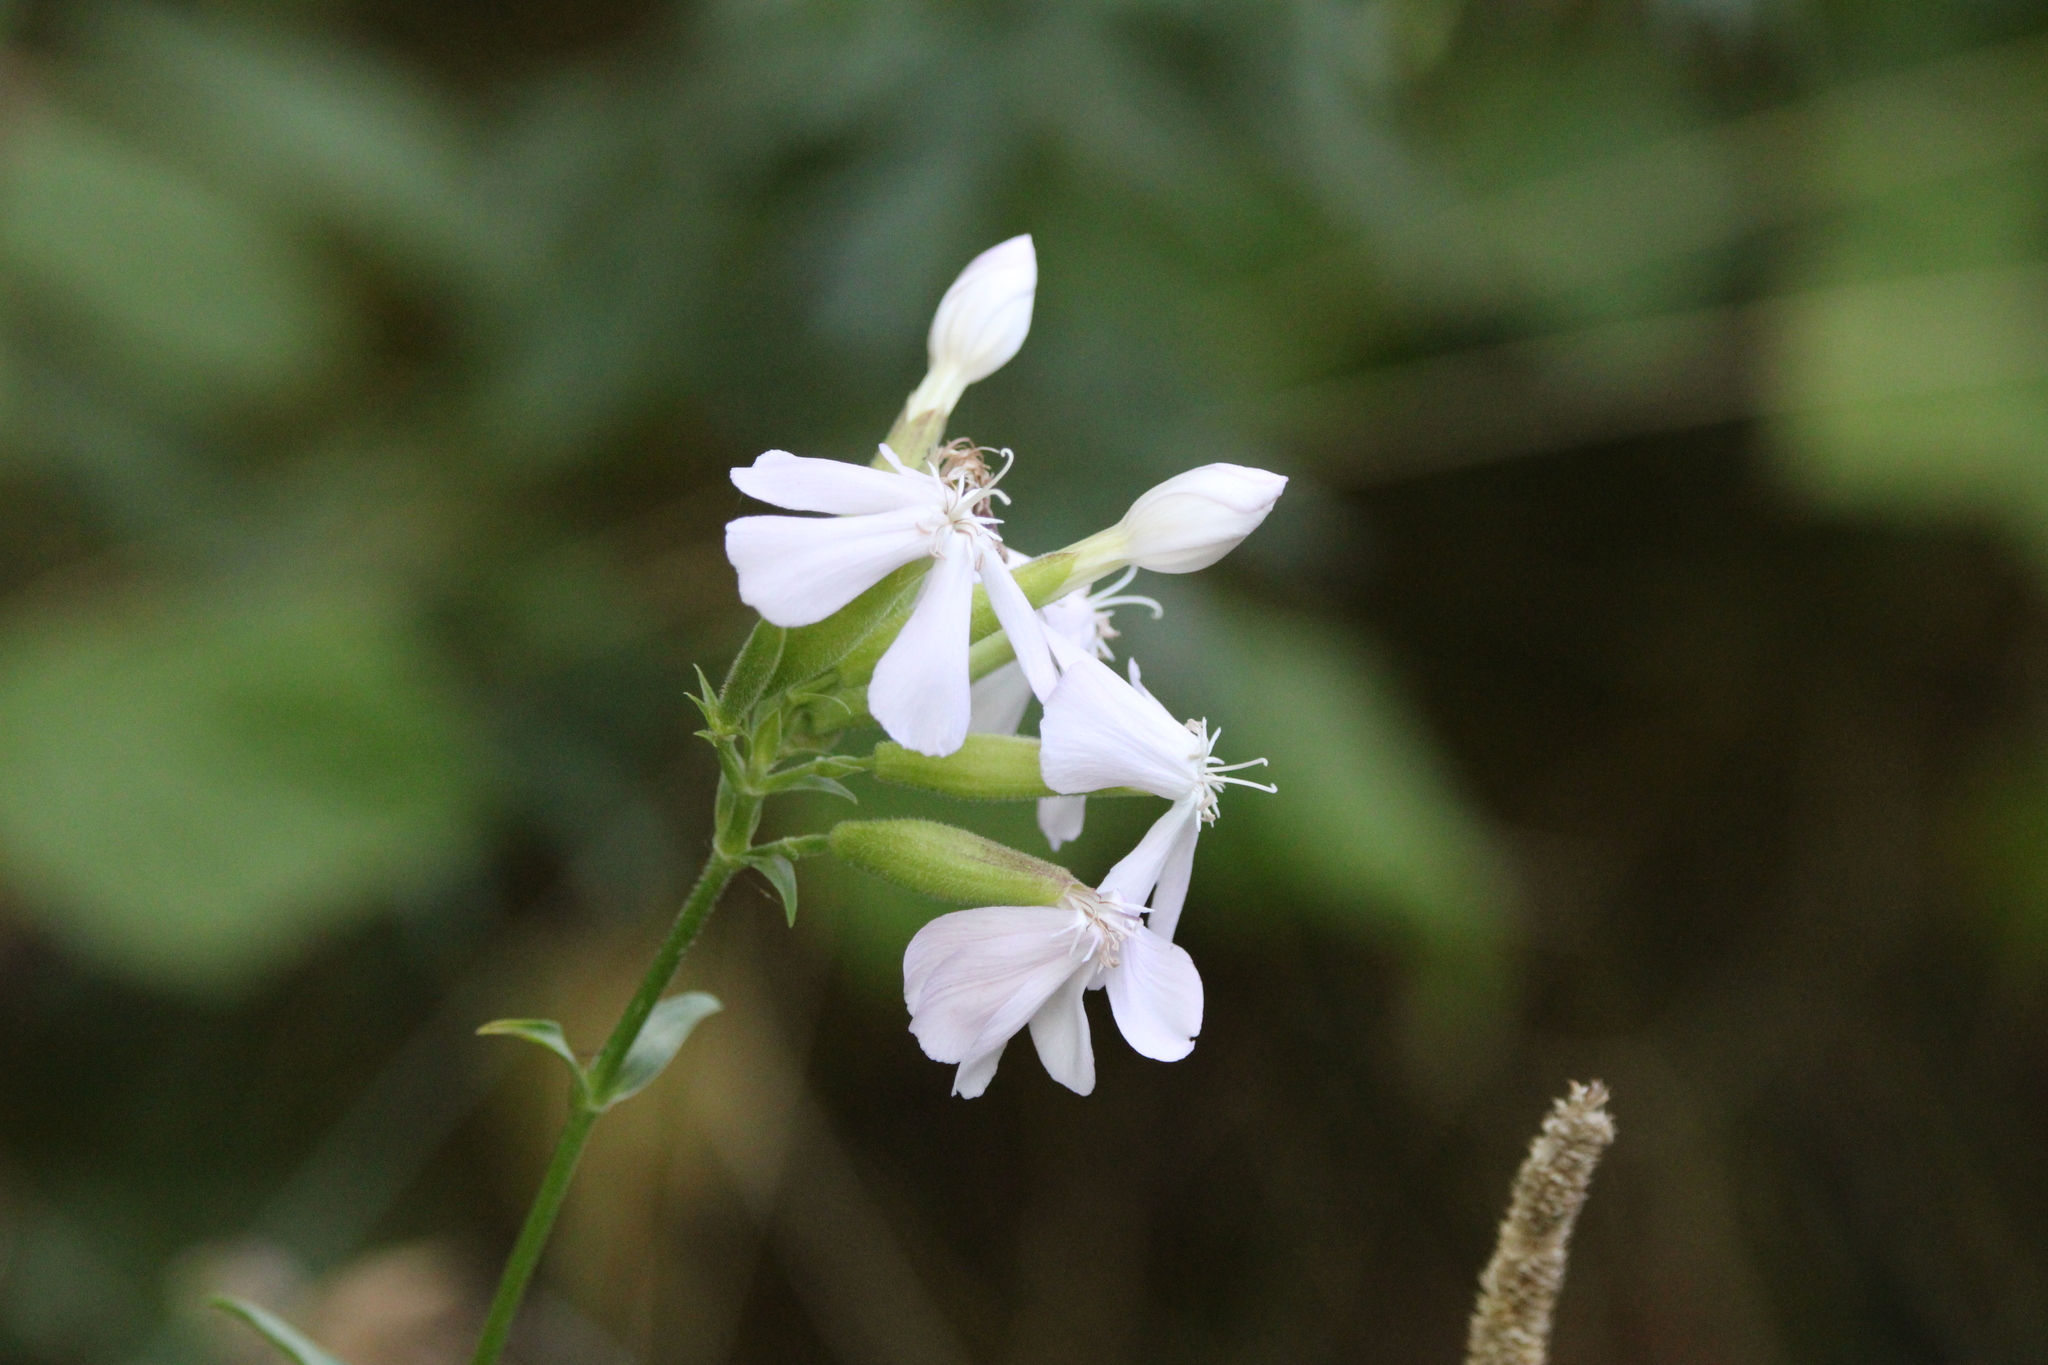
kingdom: Plantae
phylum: Tracheophyta
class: Magnoliopsida
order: Caryophyllales
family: Caryophyllaceae
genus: Saponaria
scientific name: Saponaria officinalis
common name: Soapwort
